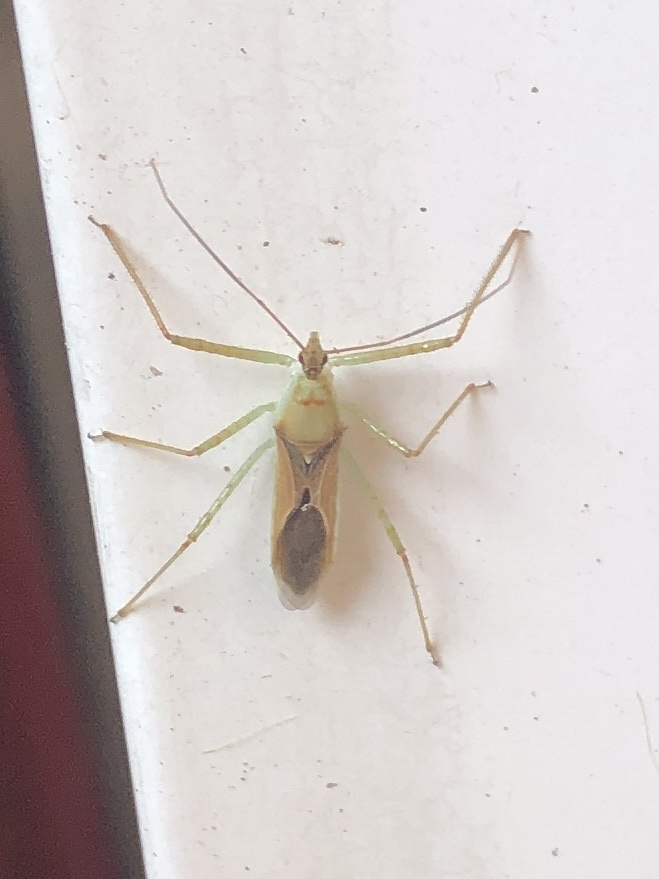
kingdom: Animalia
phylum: Arthropoda
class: Insecta
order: Hemiptera
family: Reduviidae
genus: Zelus
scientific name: Zelus renardii
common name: Assassin bug
